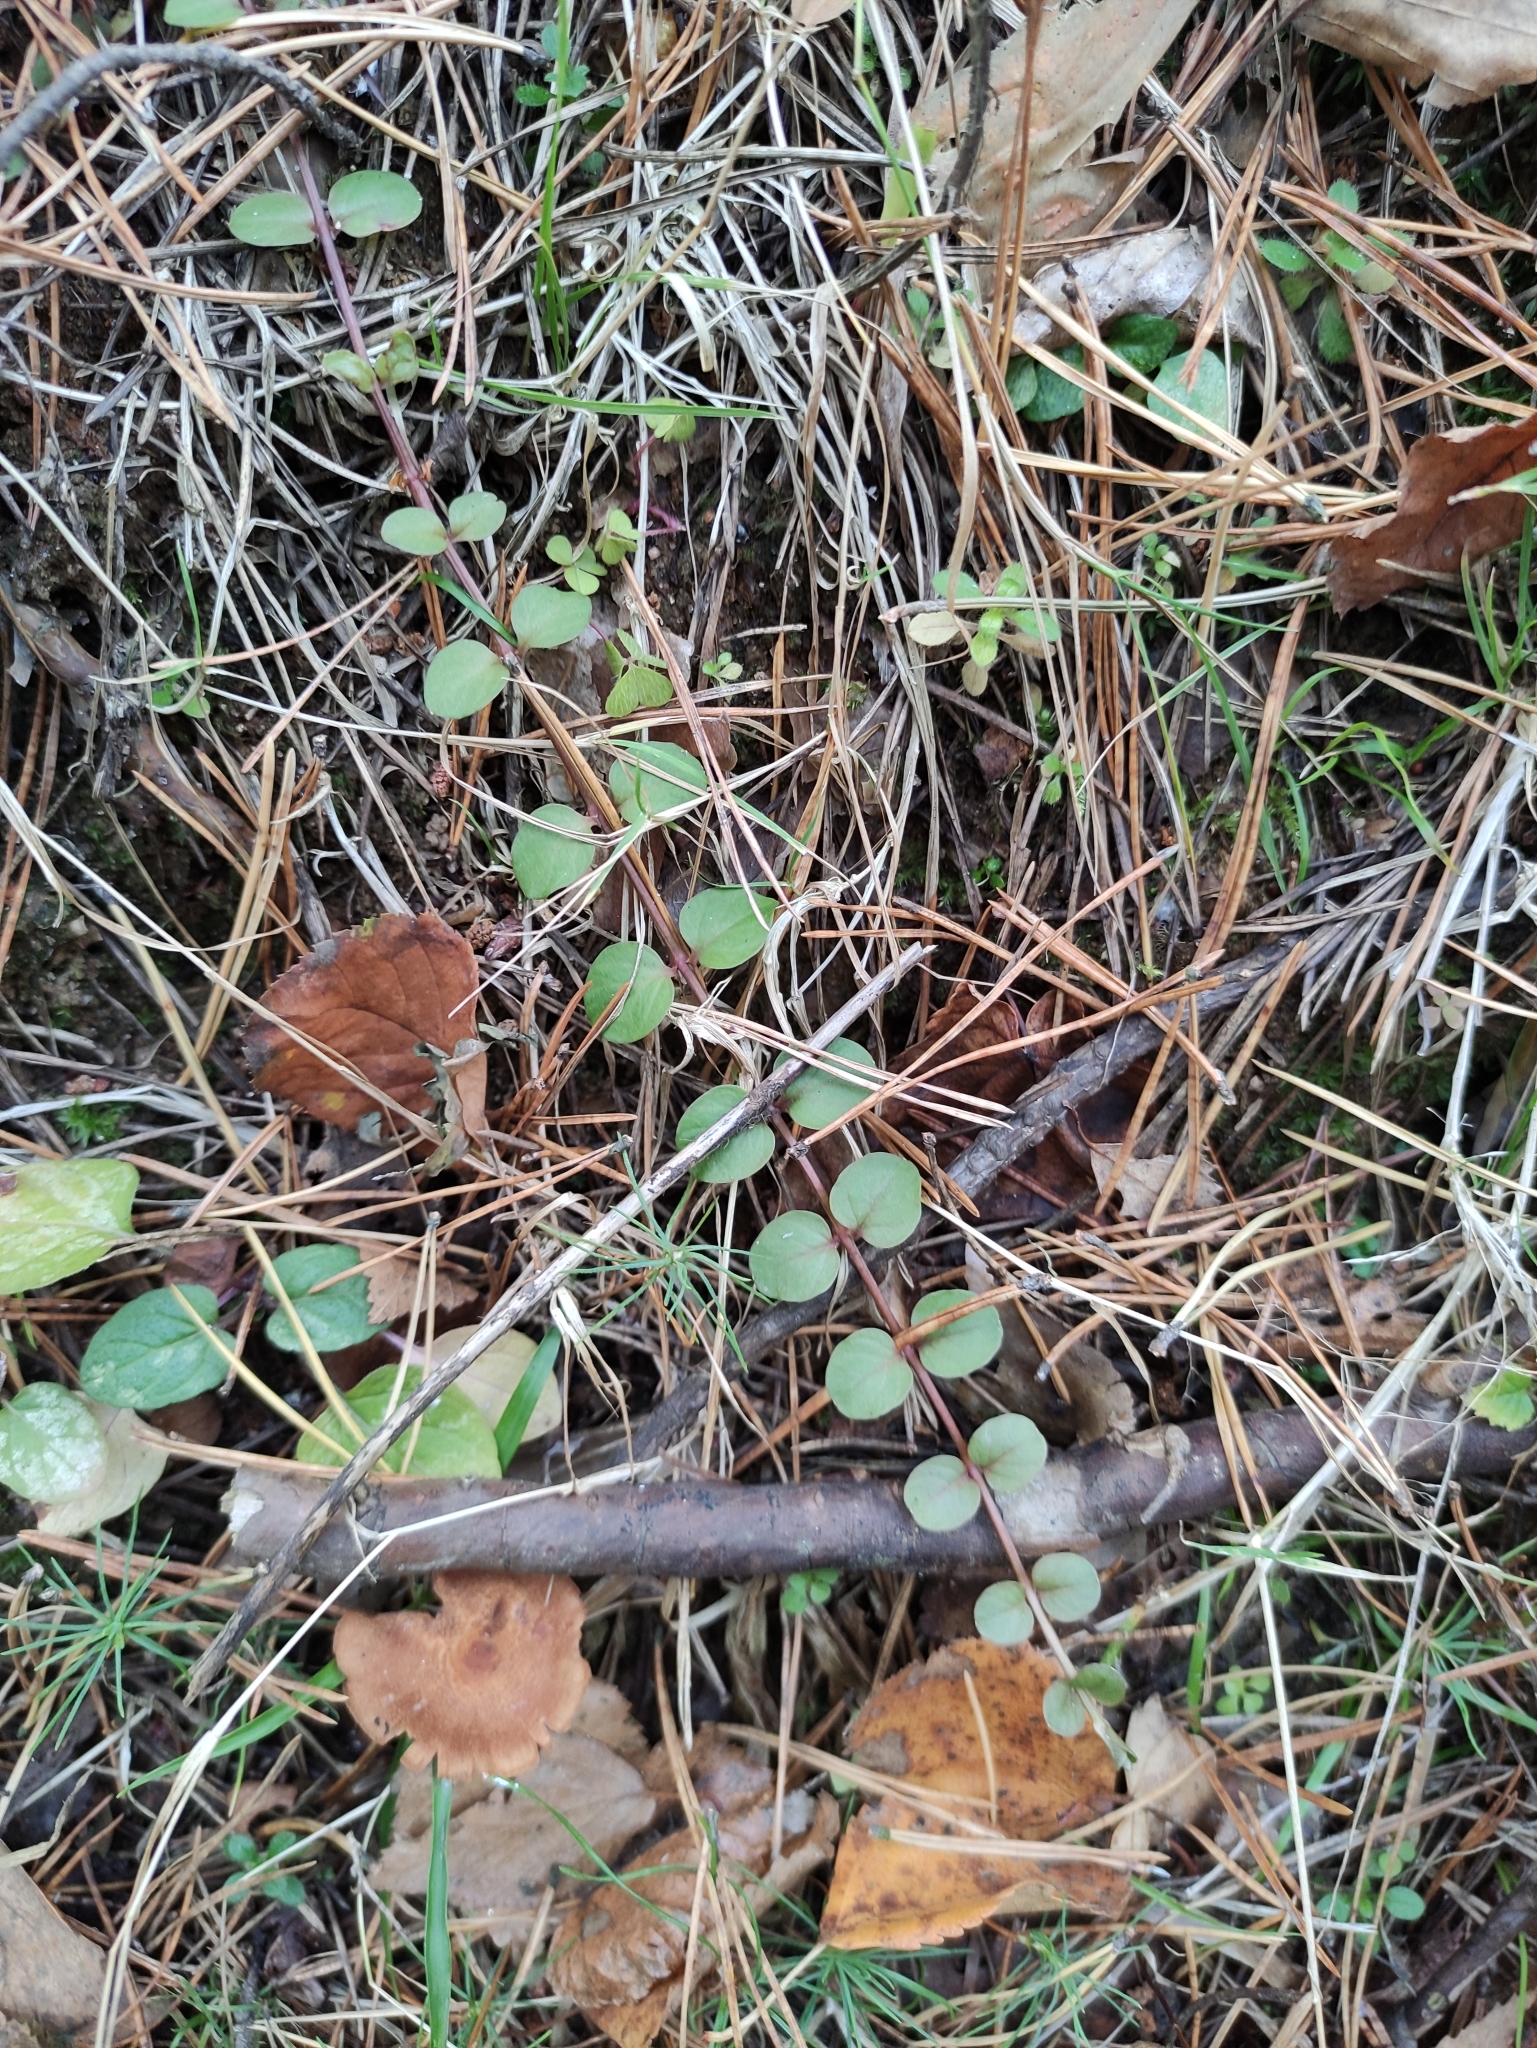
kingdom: Plantae
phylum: Tracheophyta
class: Magnoliopsida
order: Ericales
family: Primulaceae
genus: Lysimachia
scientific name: Lysimachia nummularia
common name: Moneywort
